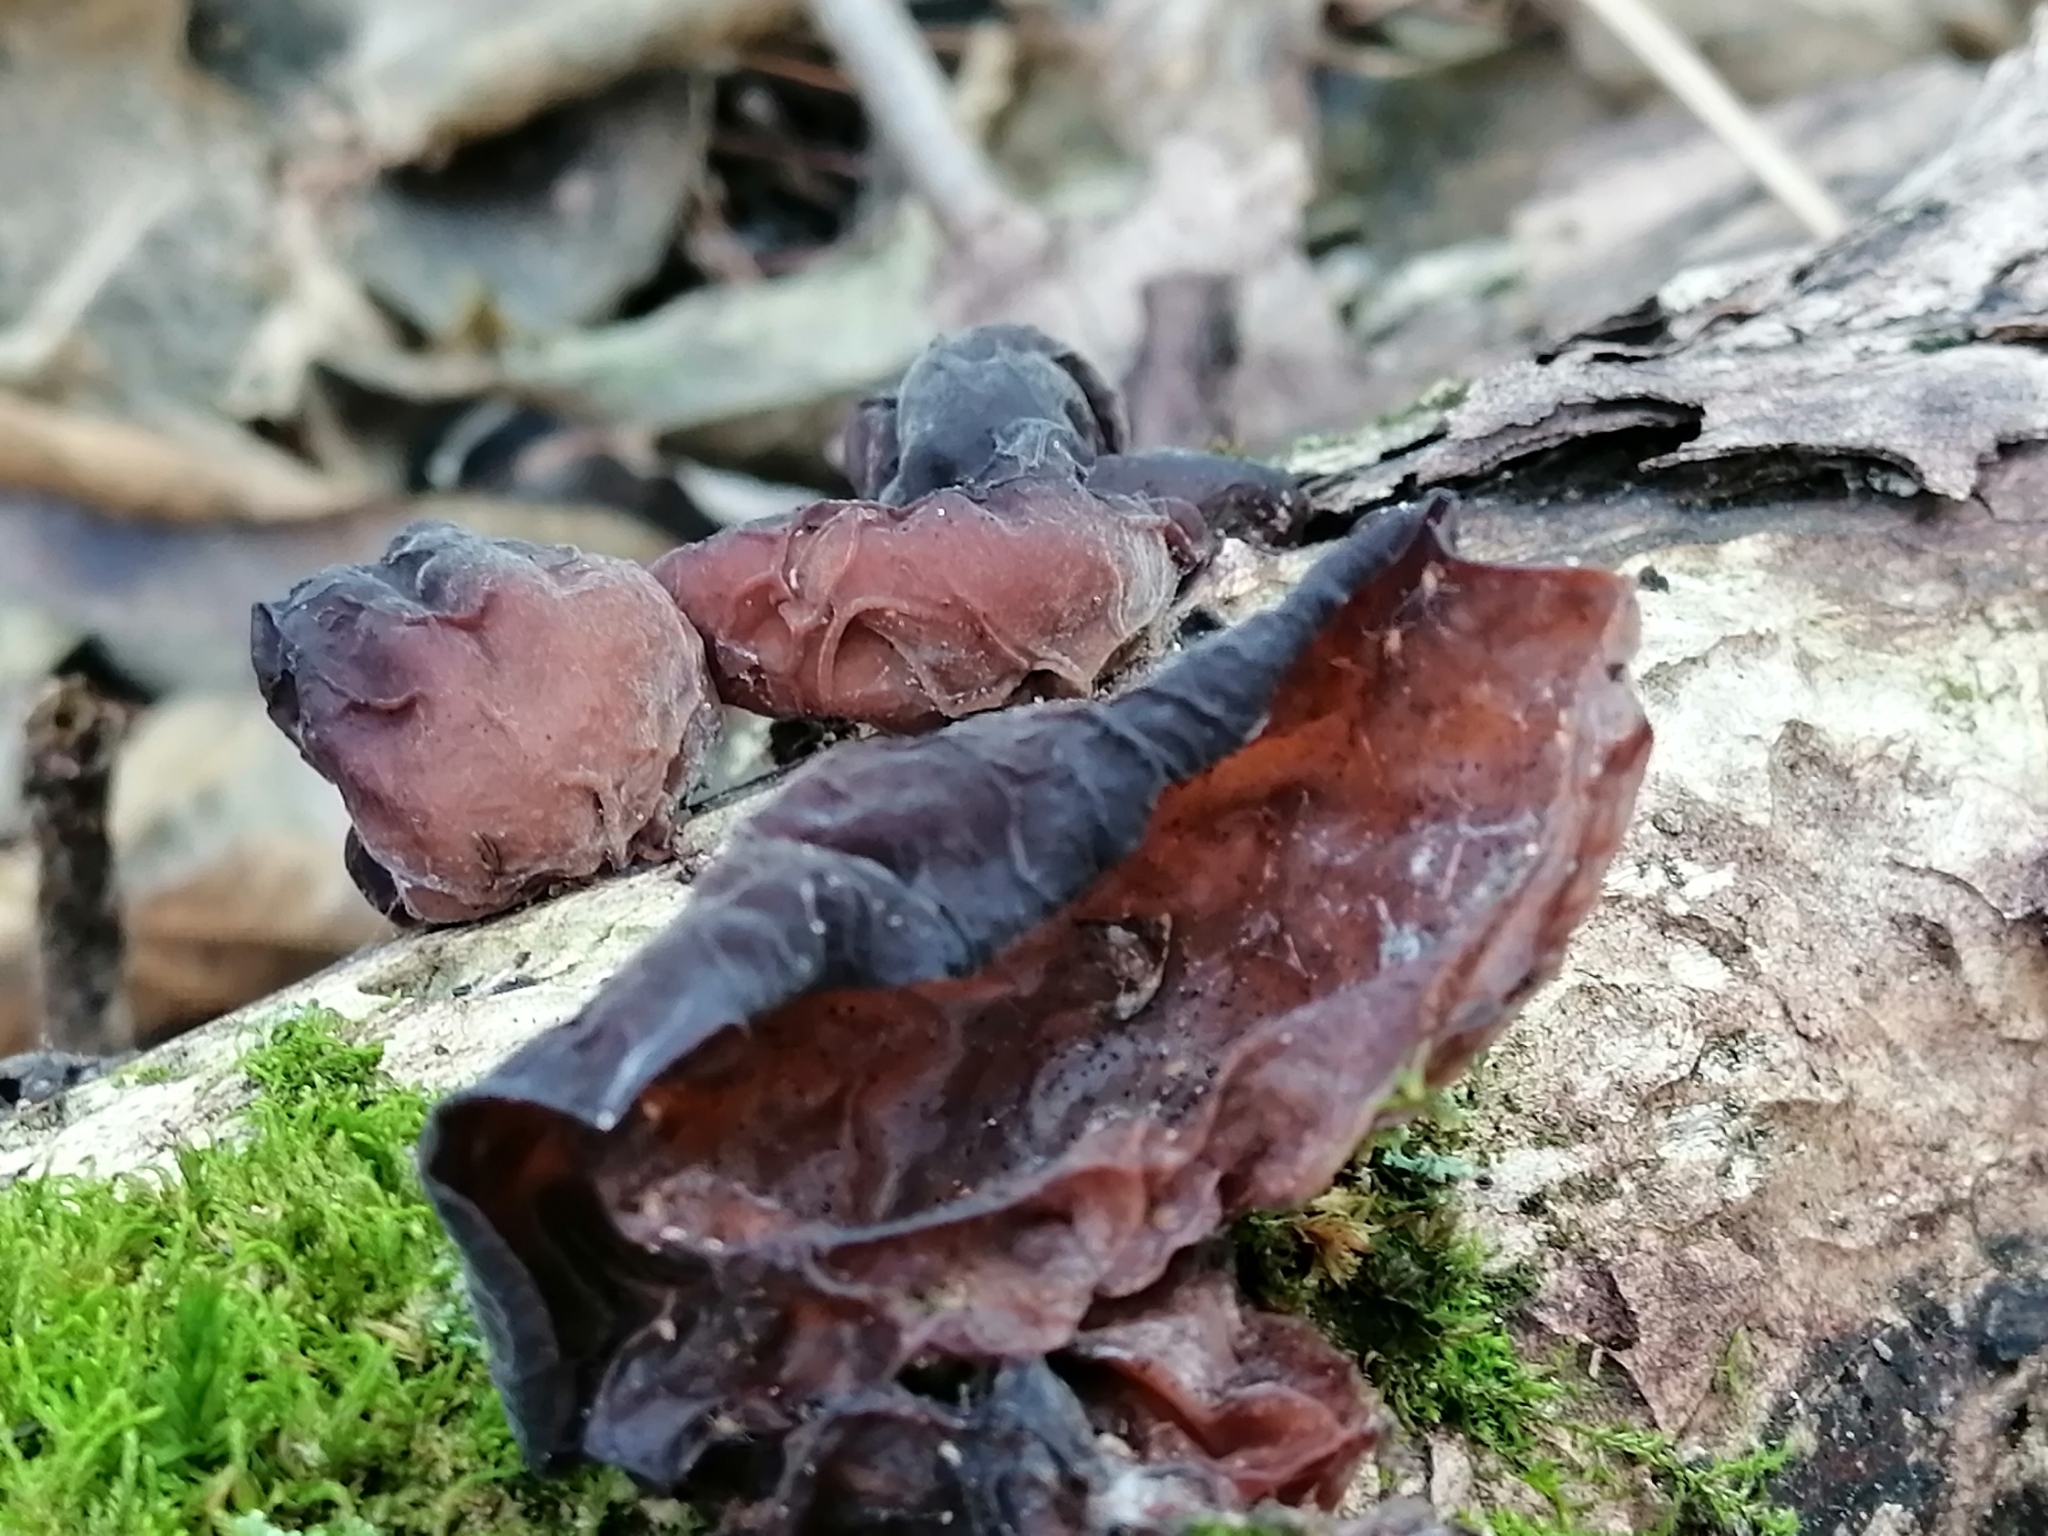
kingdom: Fungi
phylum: Basidiomycota
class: Agaricomycetes
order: Auriculariales
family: Auriculariaceae
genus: Auricularia
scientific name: Auricularia auricula-judae
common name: Jelly ear
